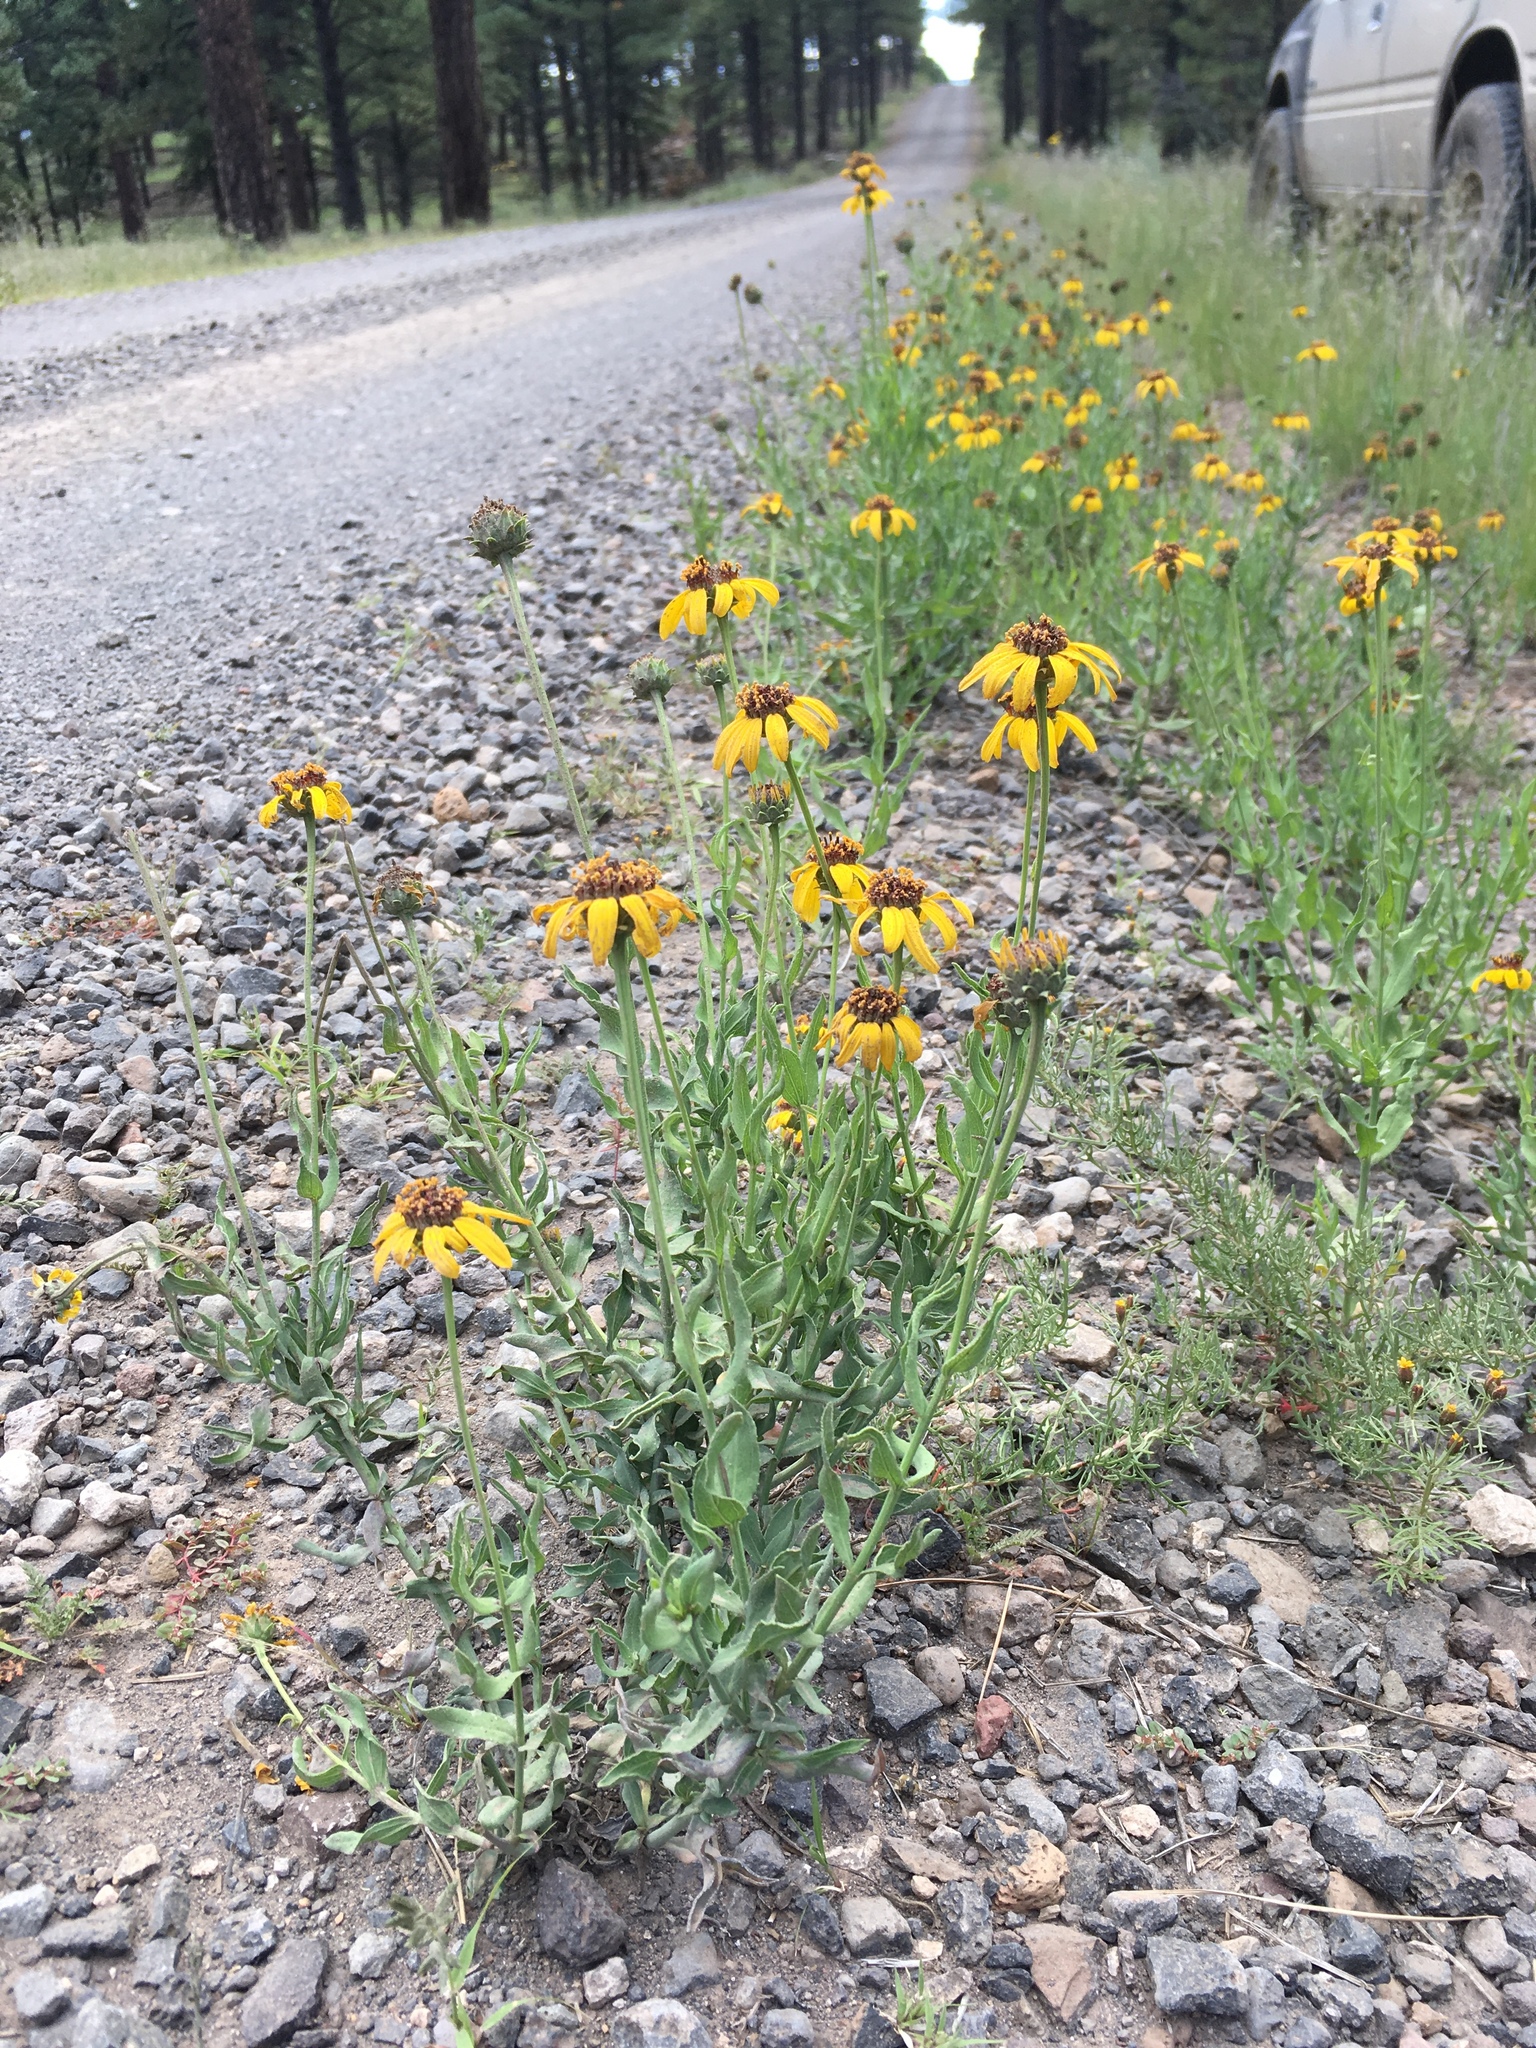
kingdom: Plantae
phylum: Tracheophyta
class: Magnoliopsida
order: Asterales
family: Asteraceae
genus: Helianthus
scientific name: Helianthus ciliaris
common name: Texas blueweed
